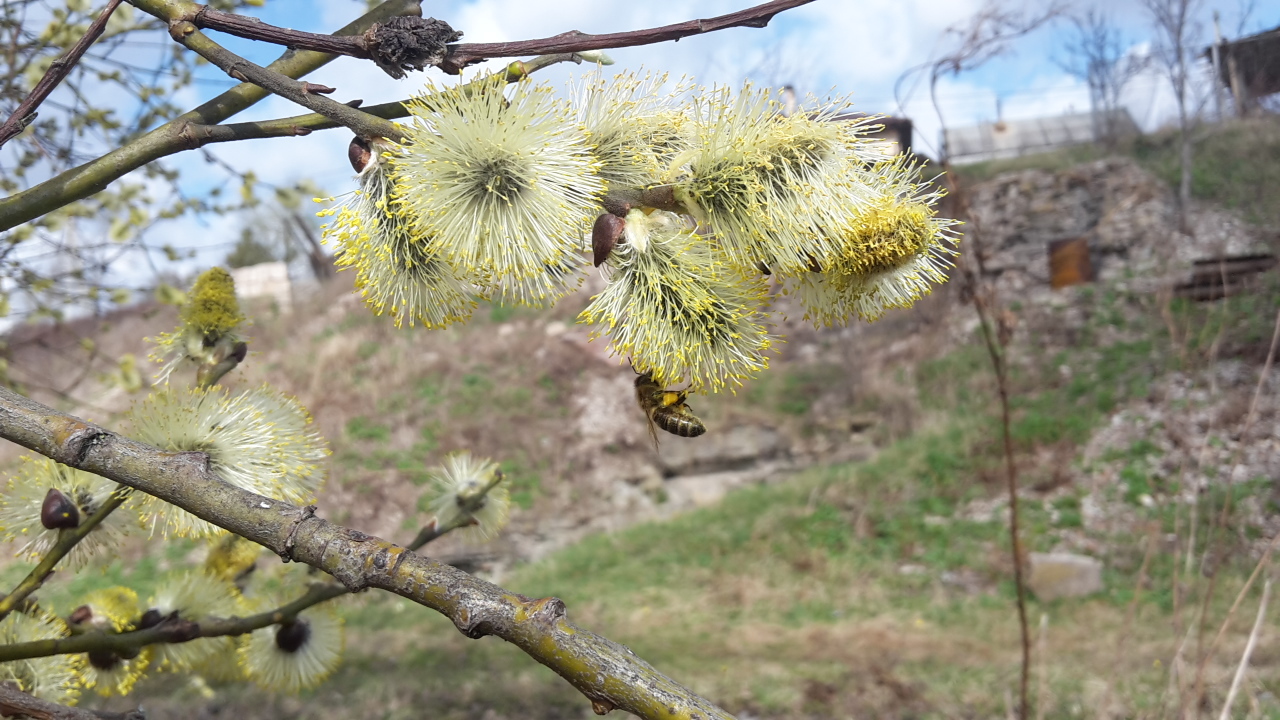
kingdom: Animalia
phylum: Arthropoda
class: Insecta
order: Hymenoptera
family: Apidae
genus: Apis
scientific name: Apis mellifera
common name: Honey bee
